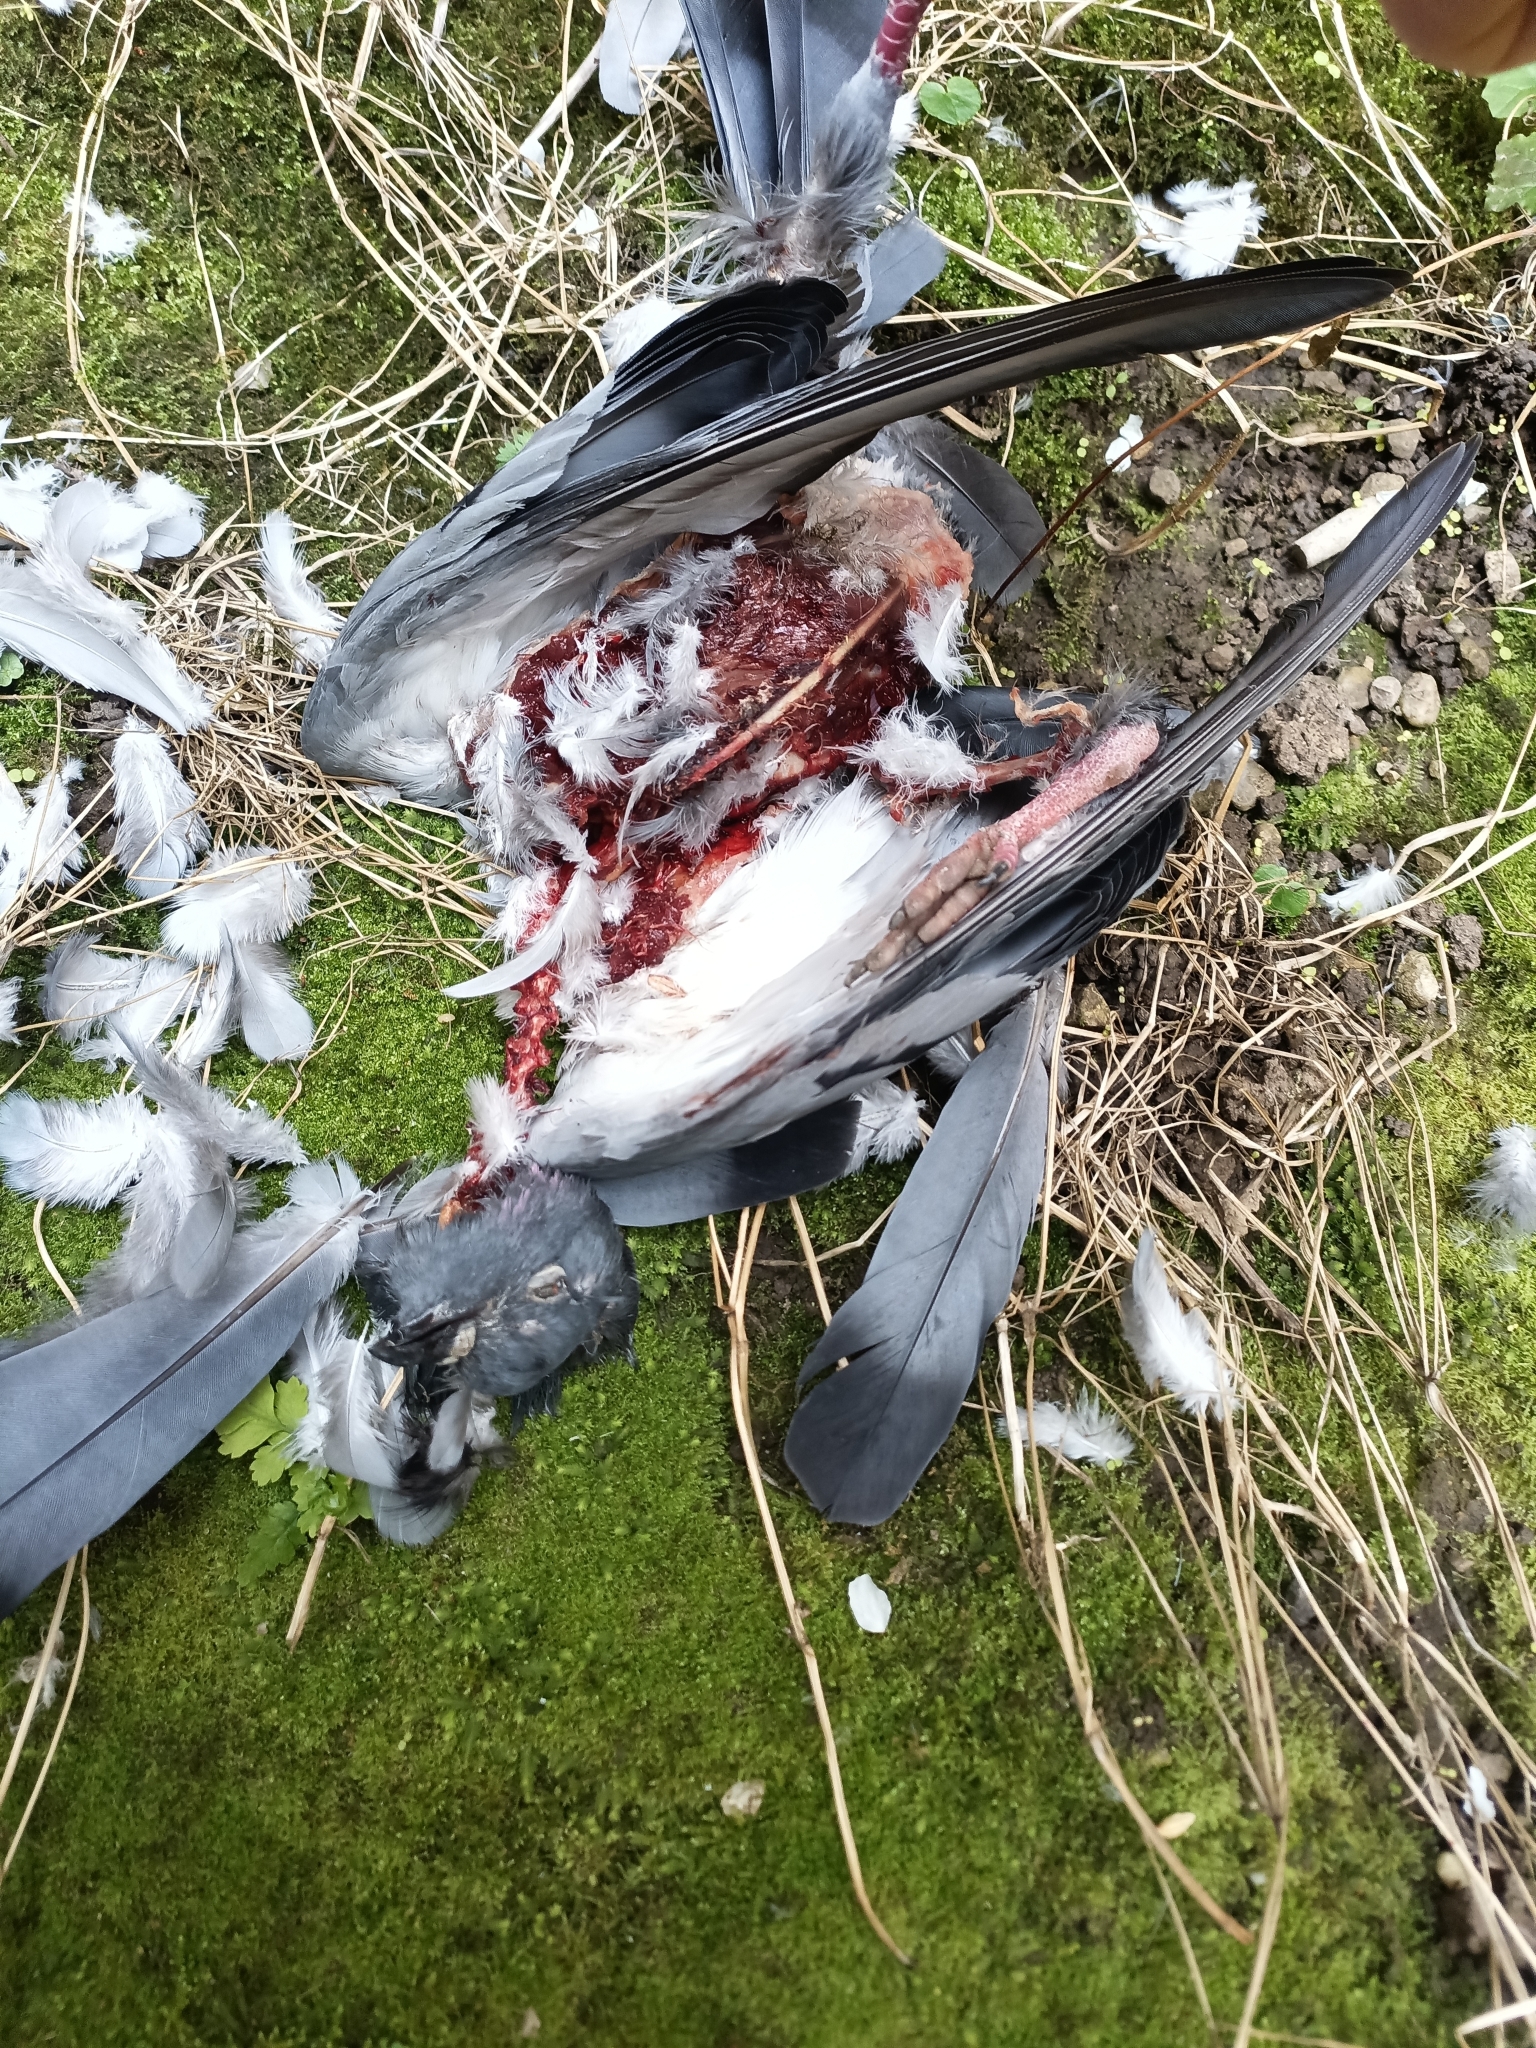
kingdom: Animalia
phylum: Chordata
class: Aves
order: Columbiformes
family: Columbidae
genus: Columba
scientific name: Columba livia
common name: Rock pigeon
